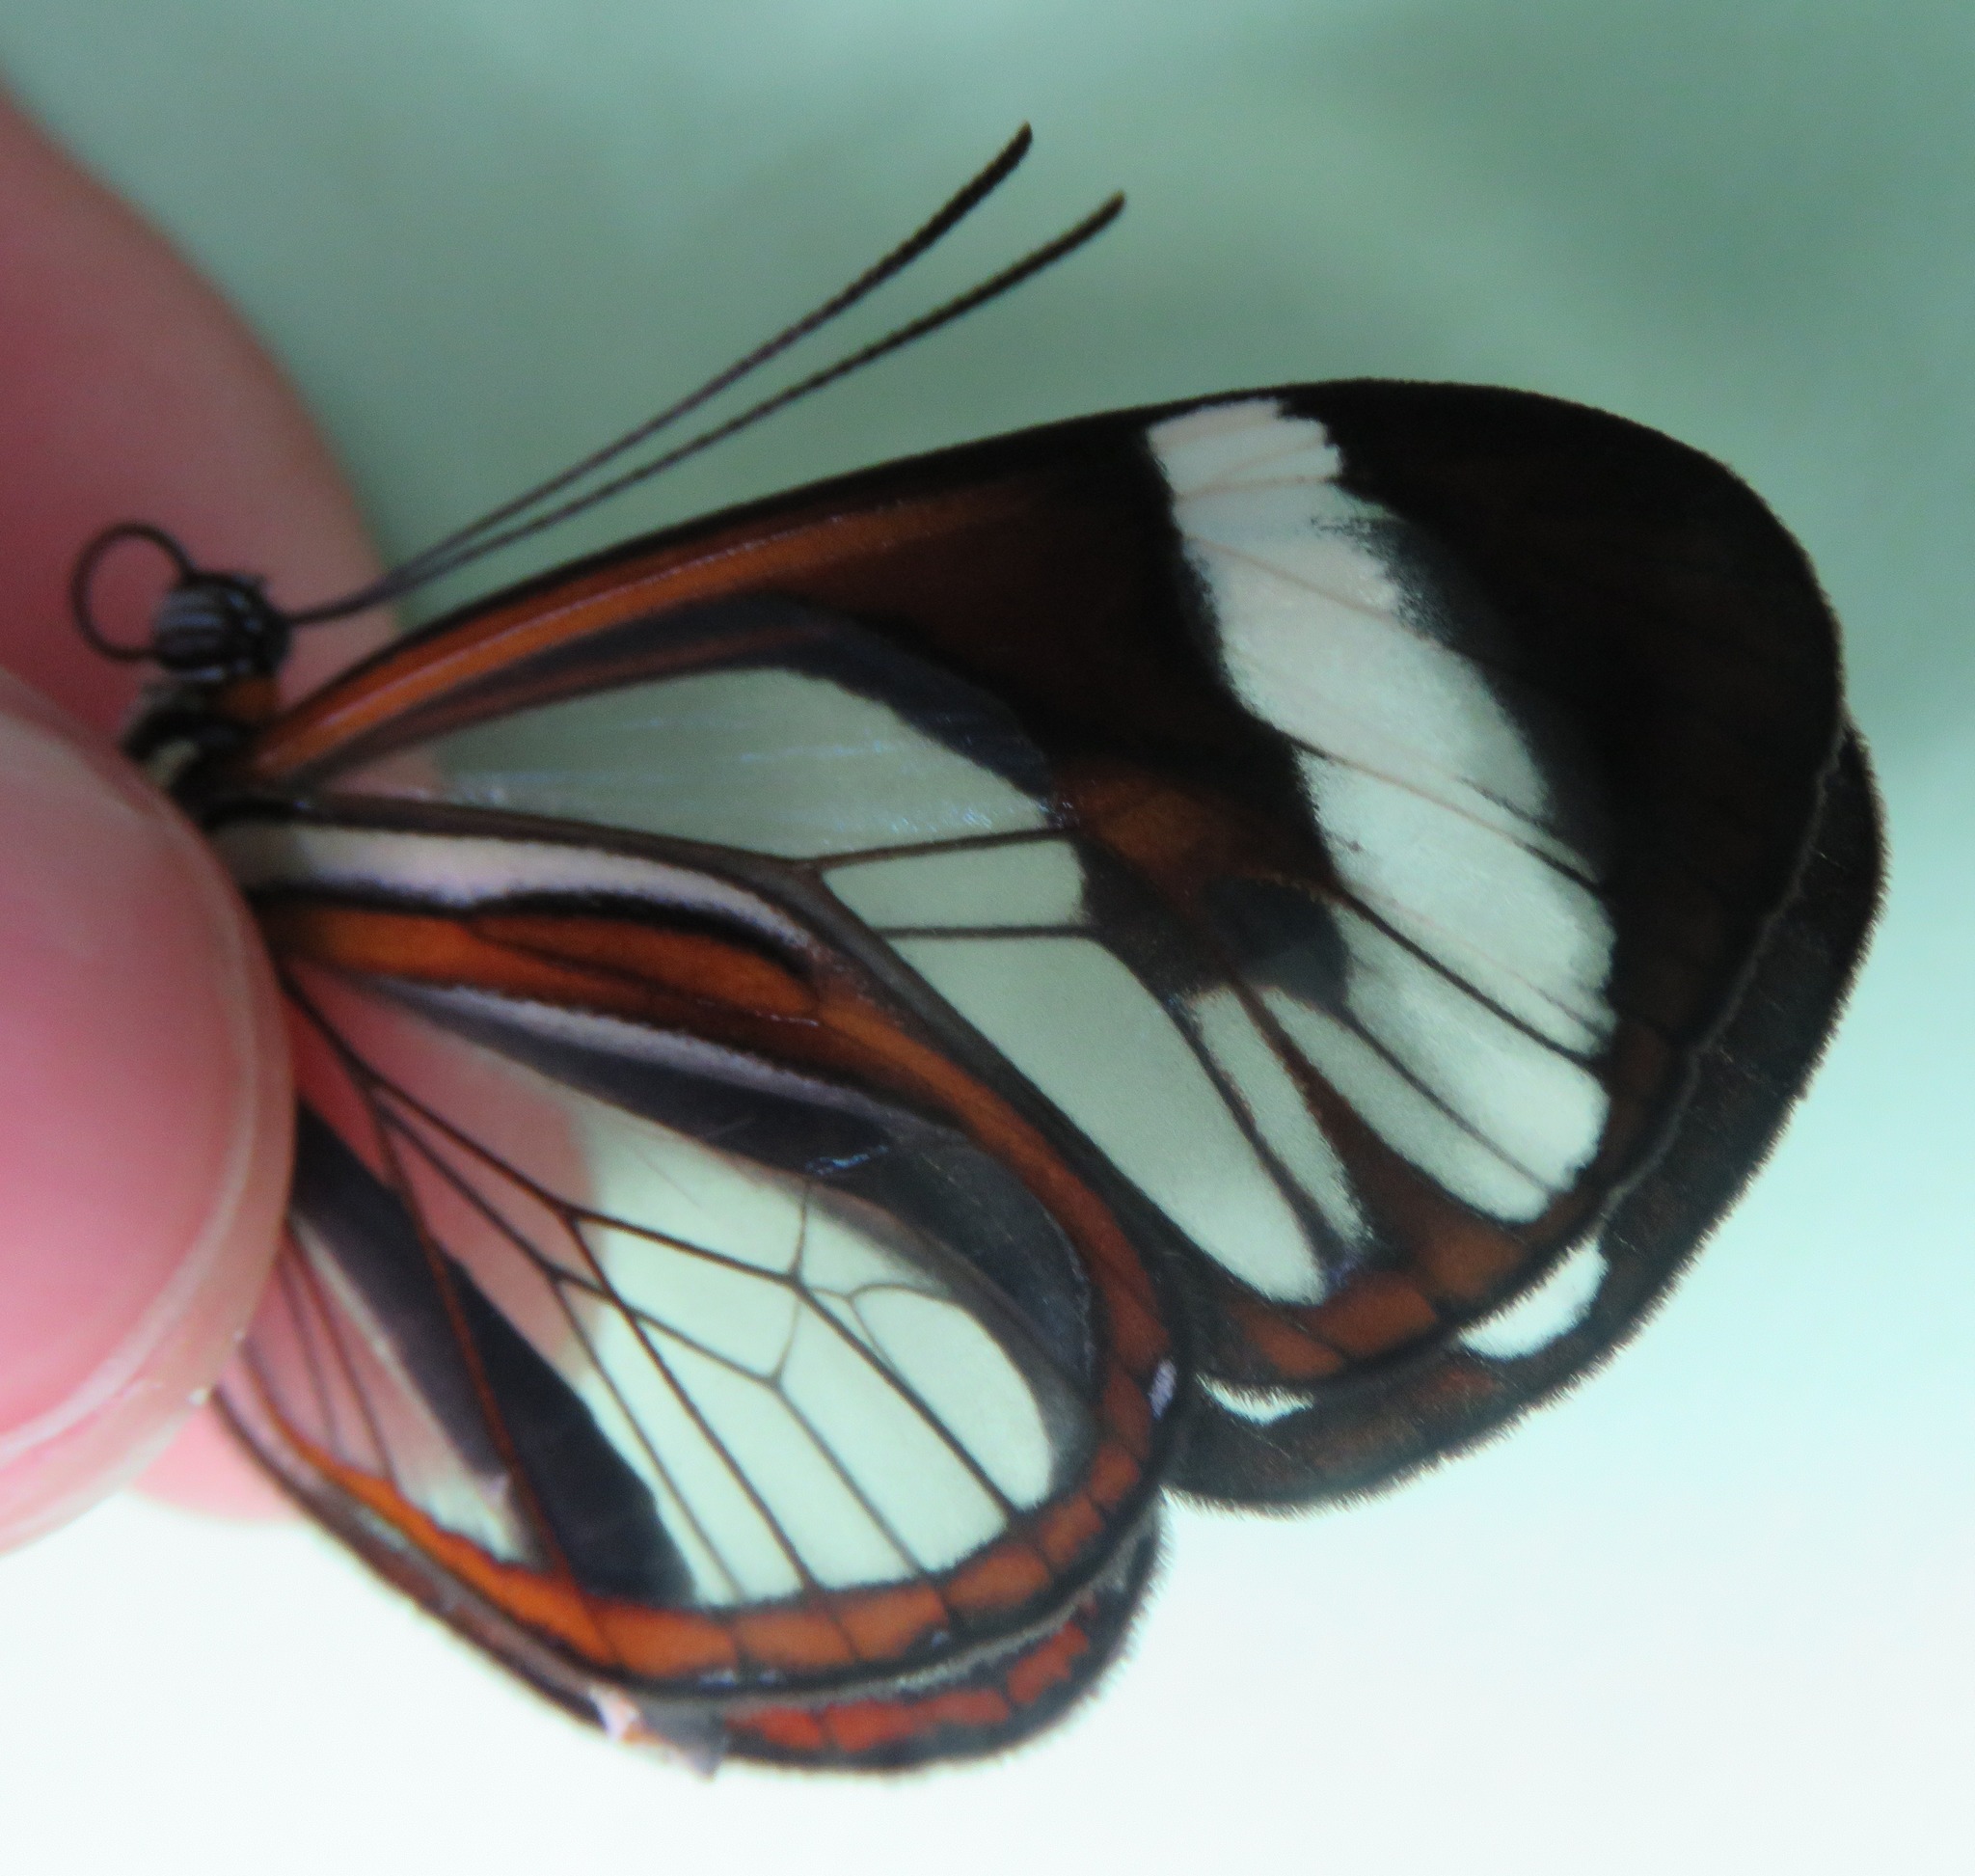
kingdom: Animalia
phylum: Arthropoda
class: Insecta
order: Lepidoptera
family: Nymphalidae
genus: Ithomia
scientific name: Ithomia patilla
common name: Patilla clearwing
